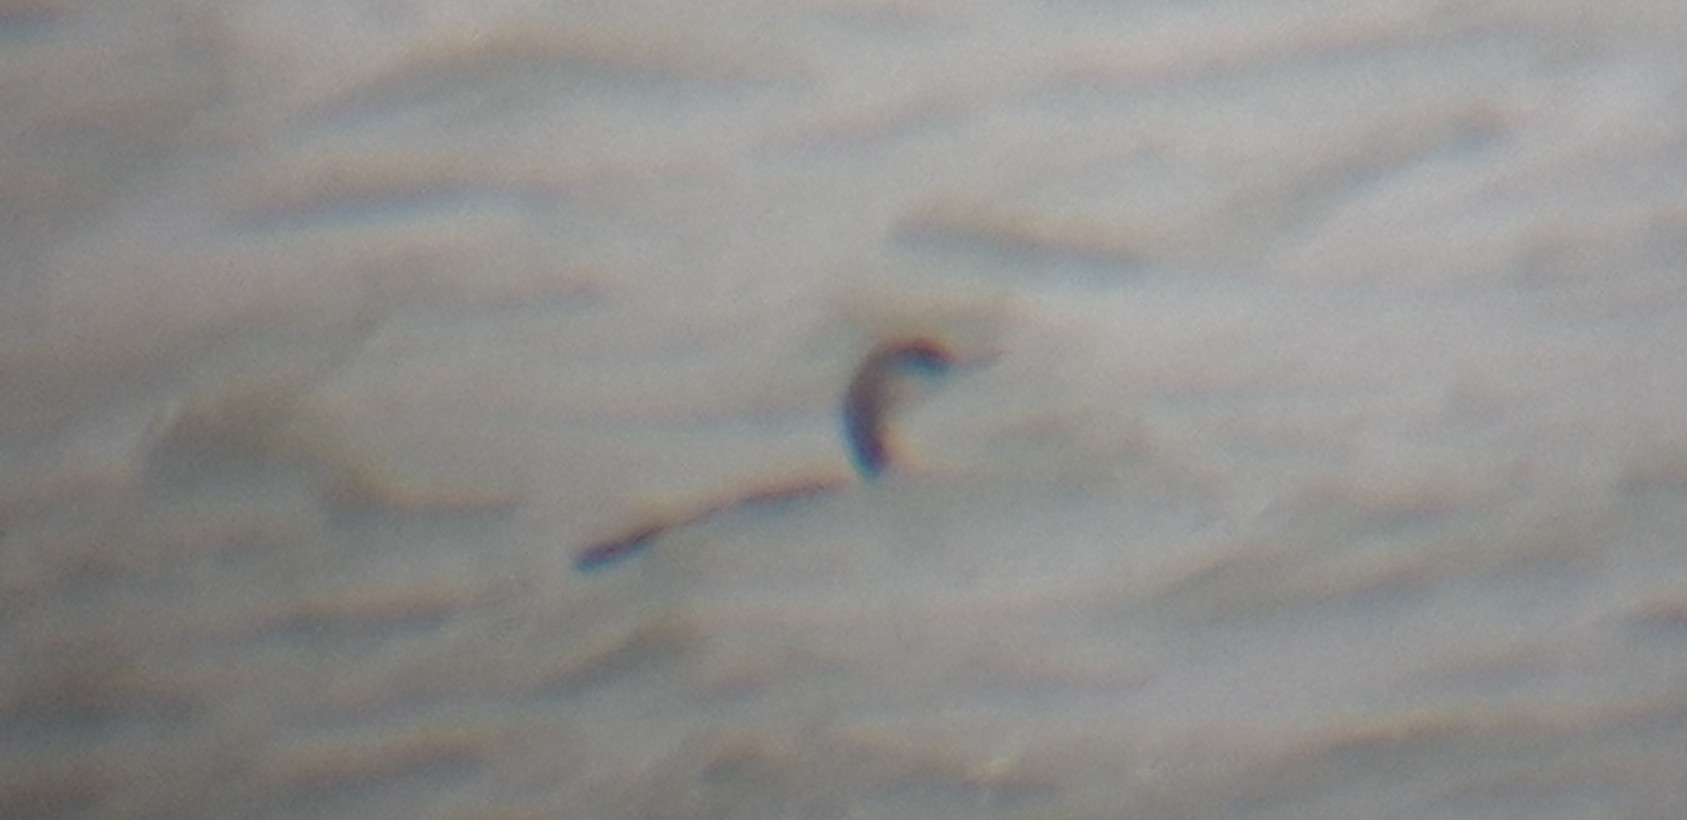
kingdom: Animalia
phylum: Chordata
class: Aves
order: Gaviiformes
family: Gaviidae
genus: Gavia
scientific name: Gavia arctica
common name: Black-throated loon
